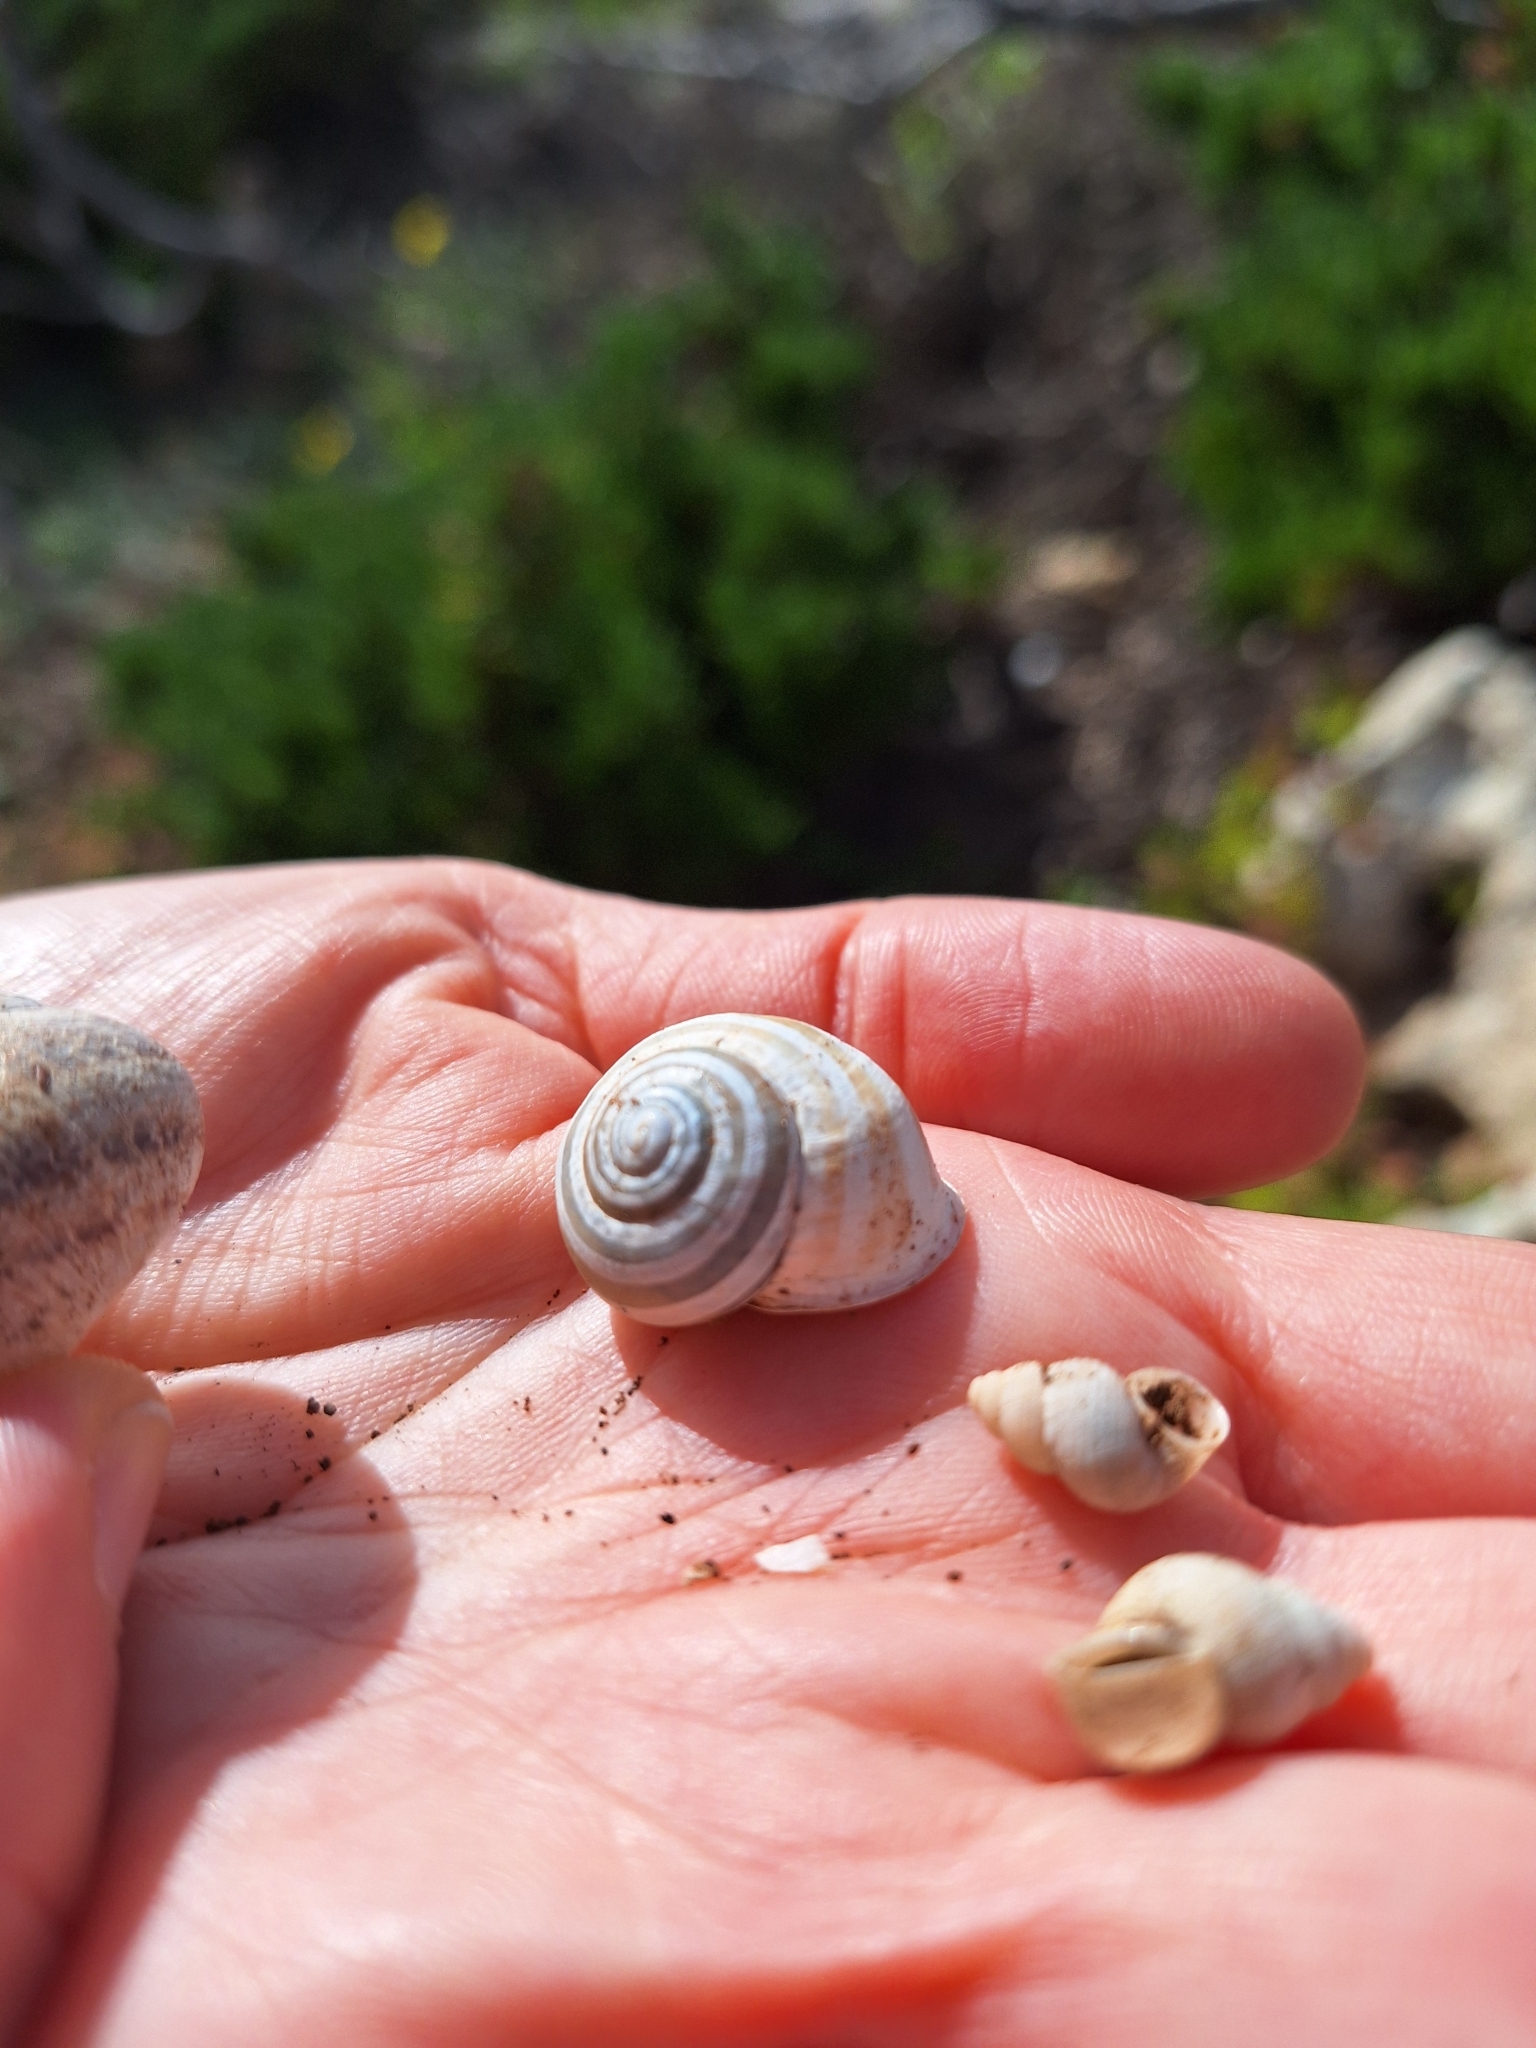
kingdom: Animalia
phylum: Mollusca
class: Gastropoda
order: Stylommatophora
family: Helicidae
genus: Eobania
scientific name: Eobania vermiculata
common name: Chocolateband snail
